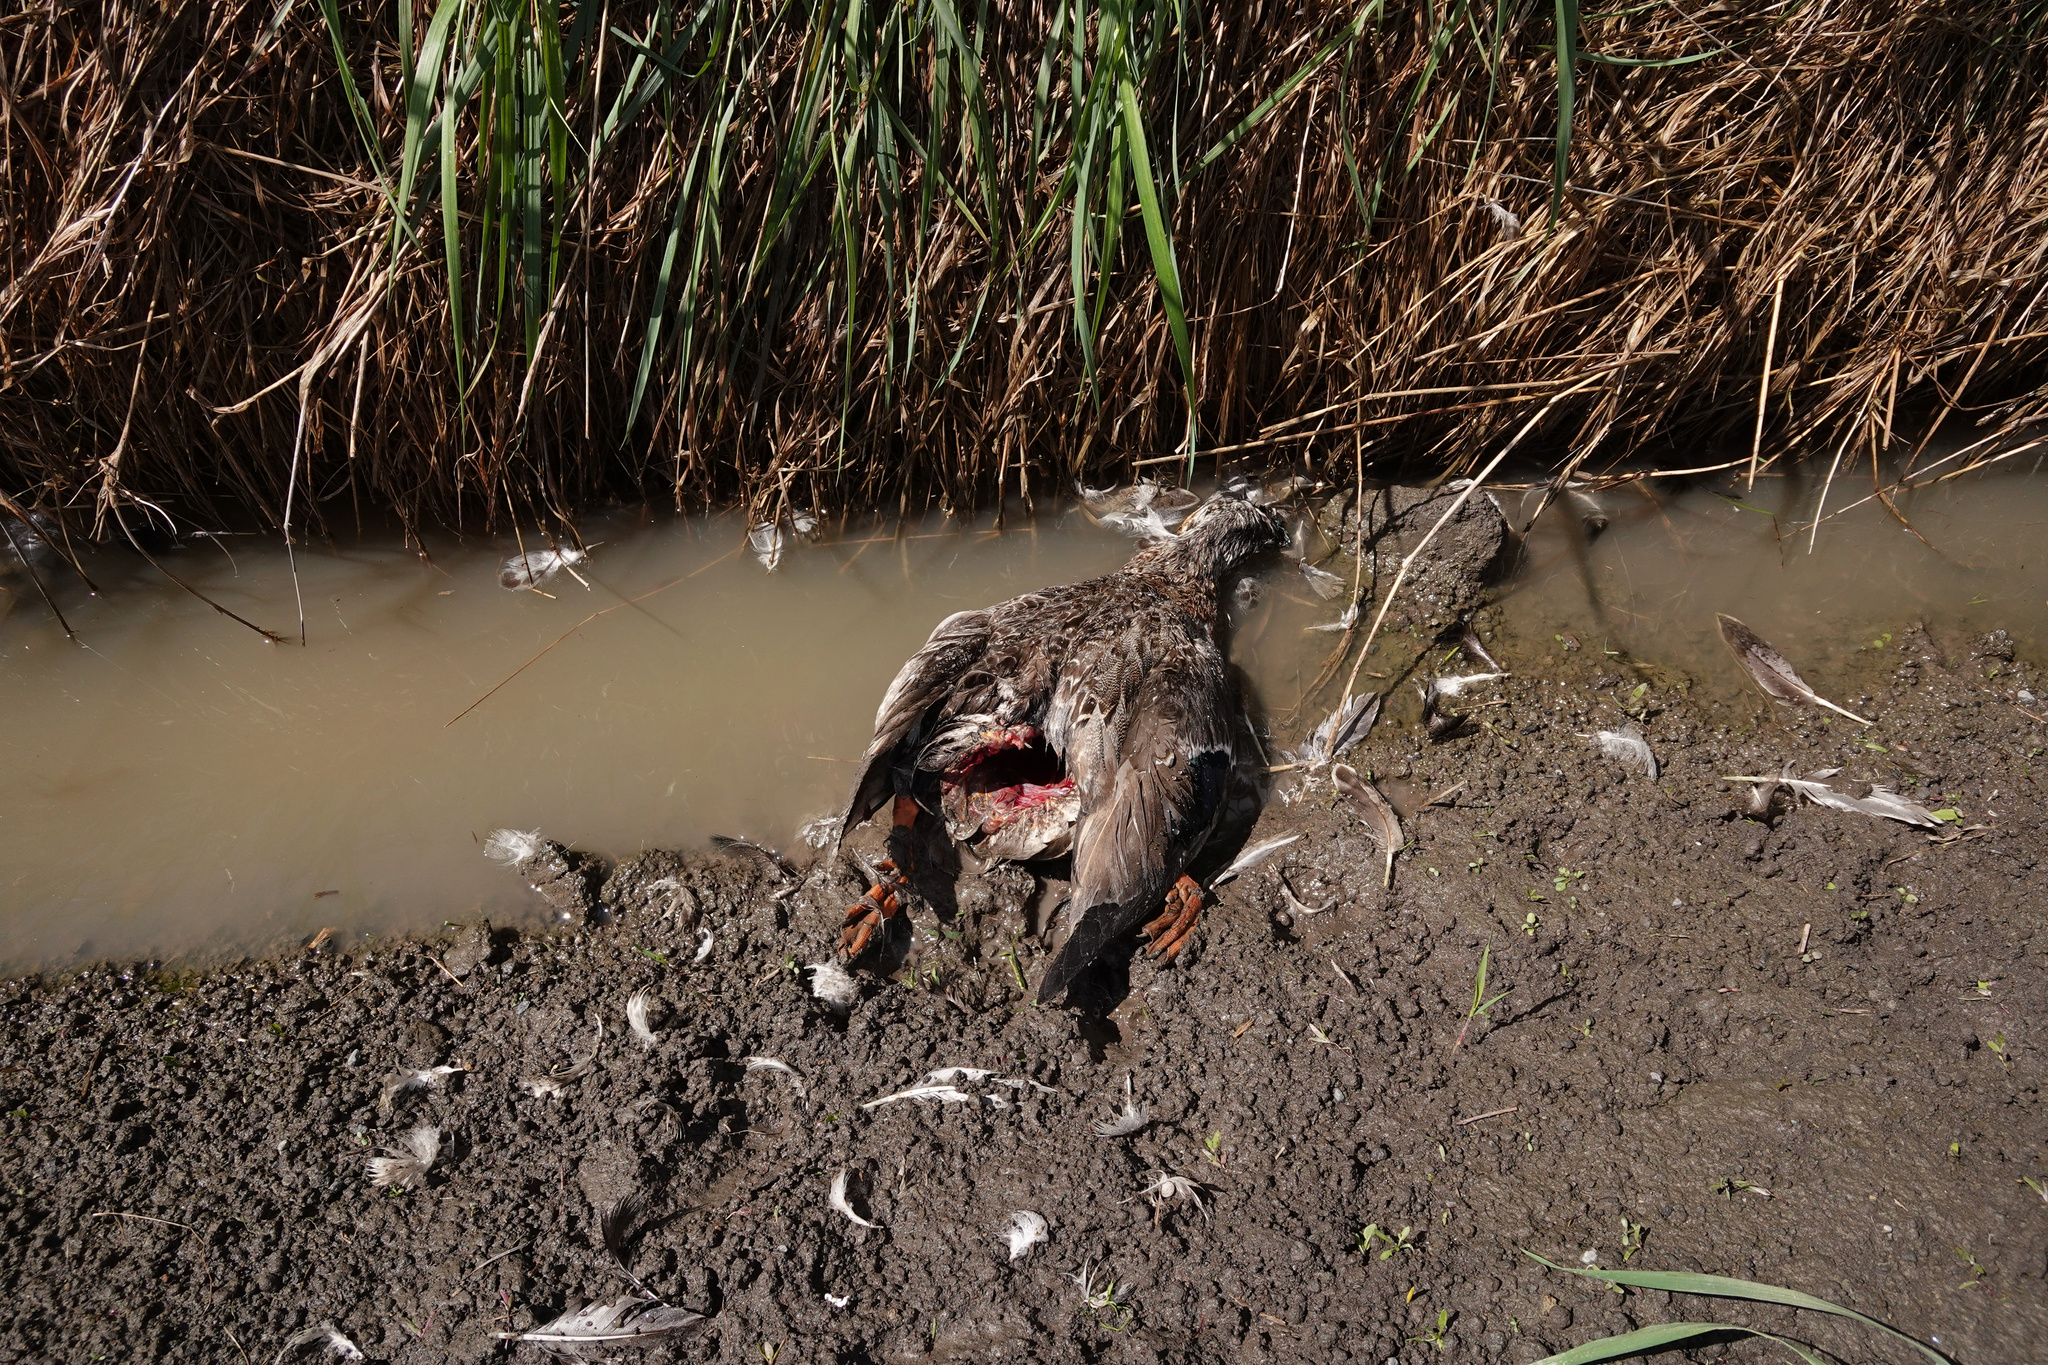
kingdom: Animalia
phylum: Chordata
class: Aves
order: Anseriformes
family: Anatidae
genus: Anas
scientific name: Anas
